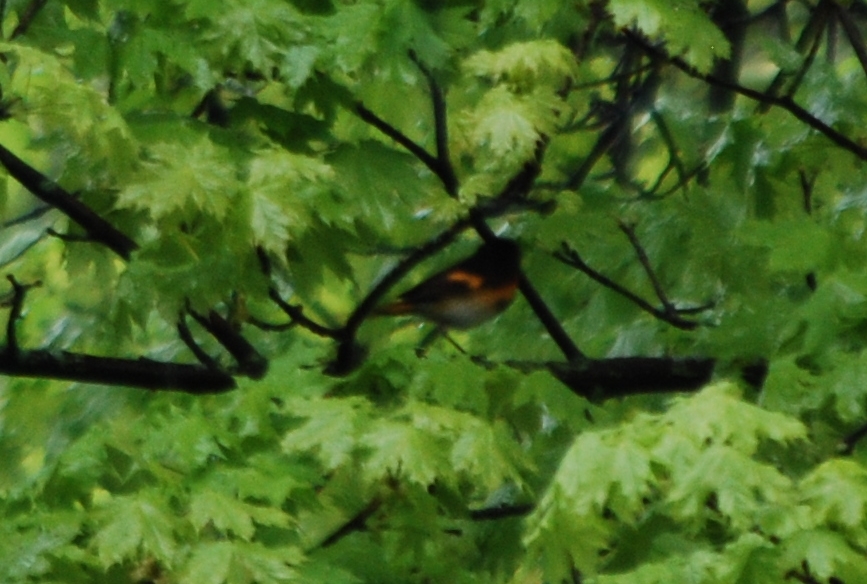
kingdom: Animalia
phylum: Chordata
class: Aves
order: Passeriformes
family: Parulidae
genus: Setophaga
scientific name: Setophaga ruticilla
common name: American redstart
